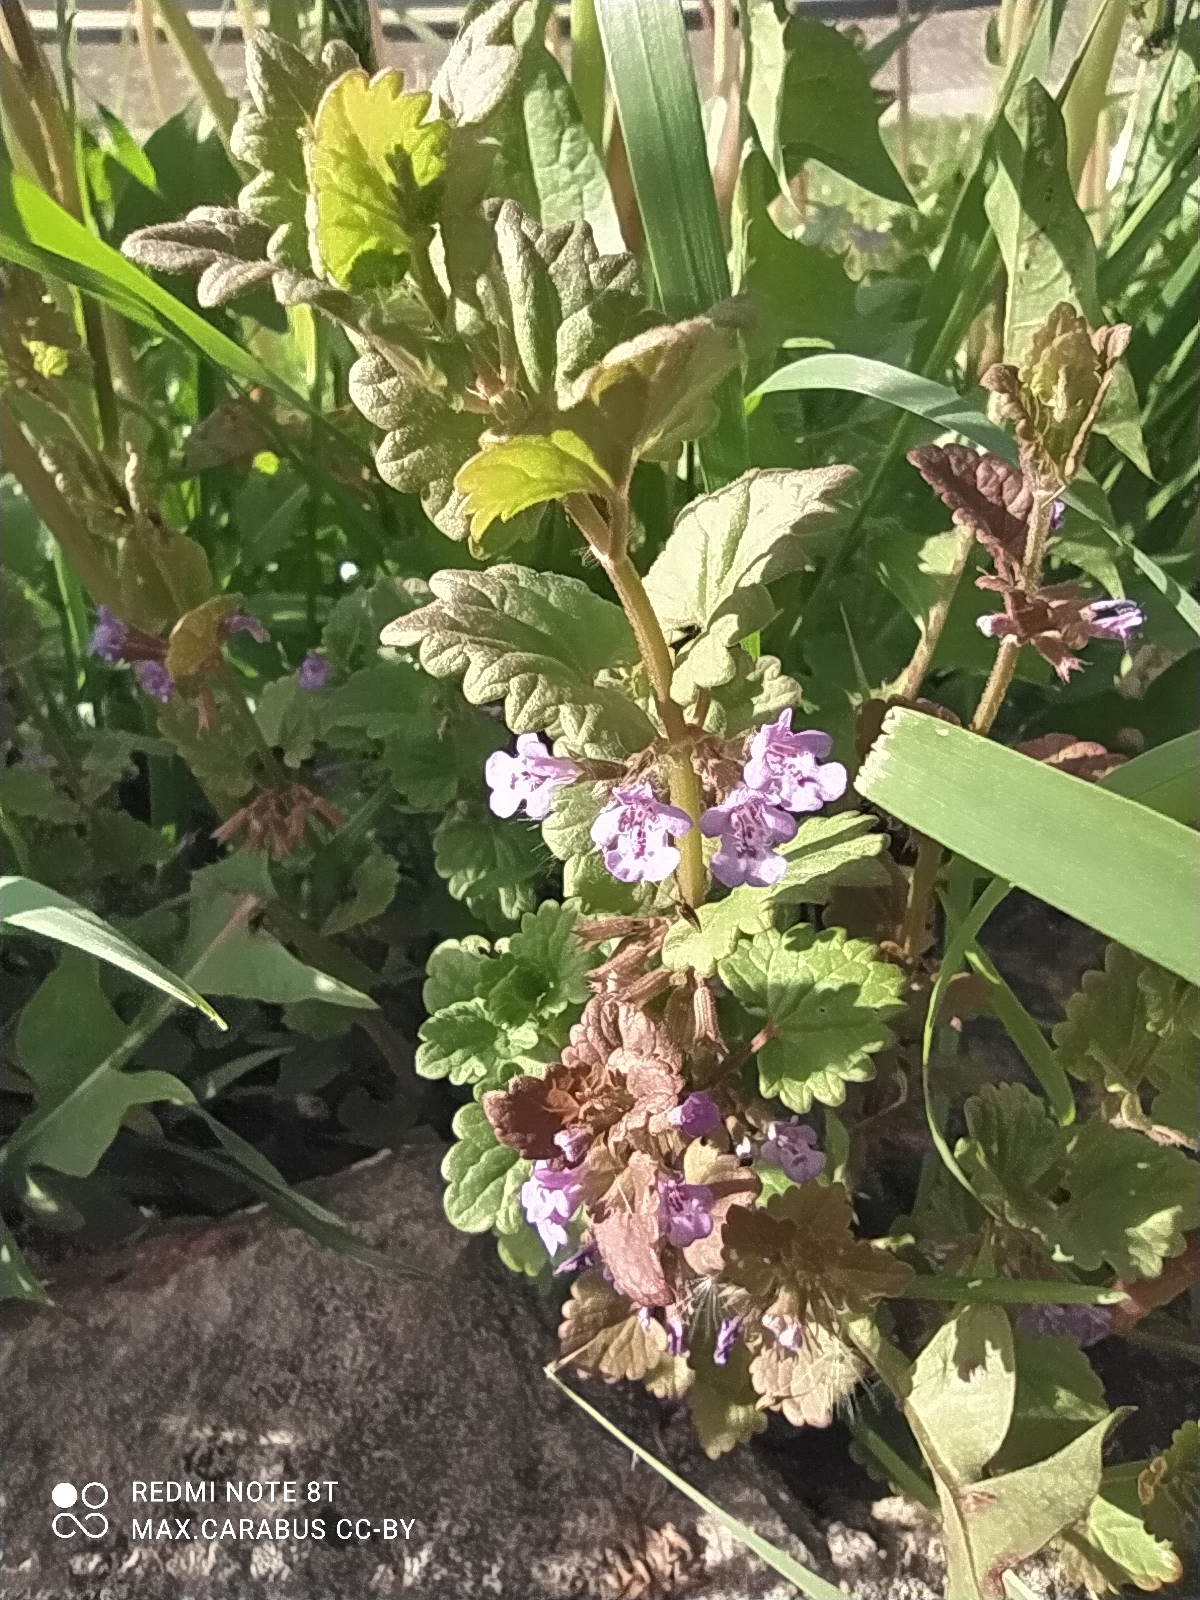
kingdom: Plantae
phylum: Tracheophyta
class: Magnoliopsida
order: Lamiales
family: Lamiaceae
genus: Glechoma
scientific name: Glechoma hederacea
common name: Ground ivy
